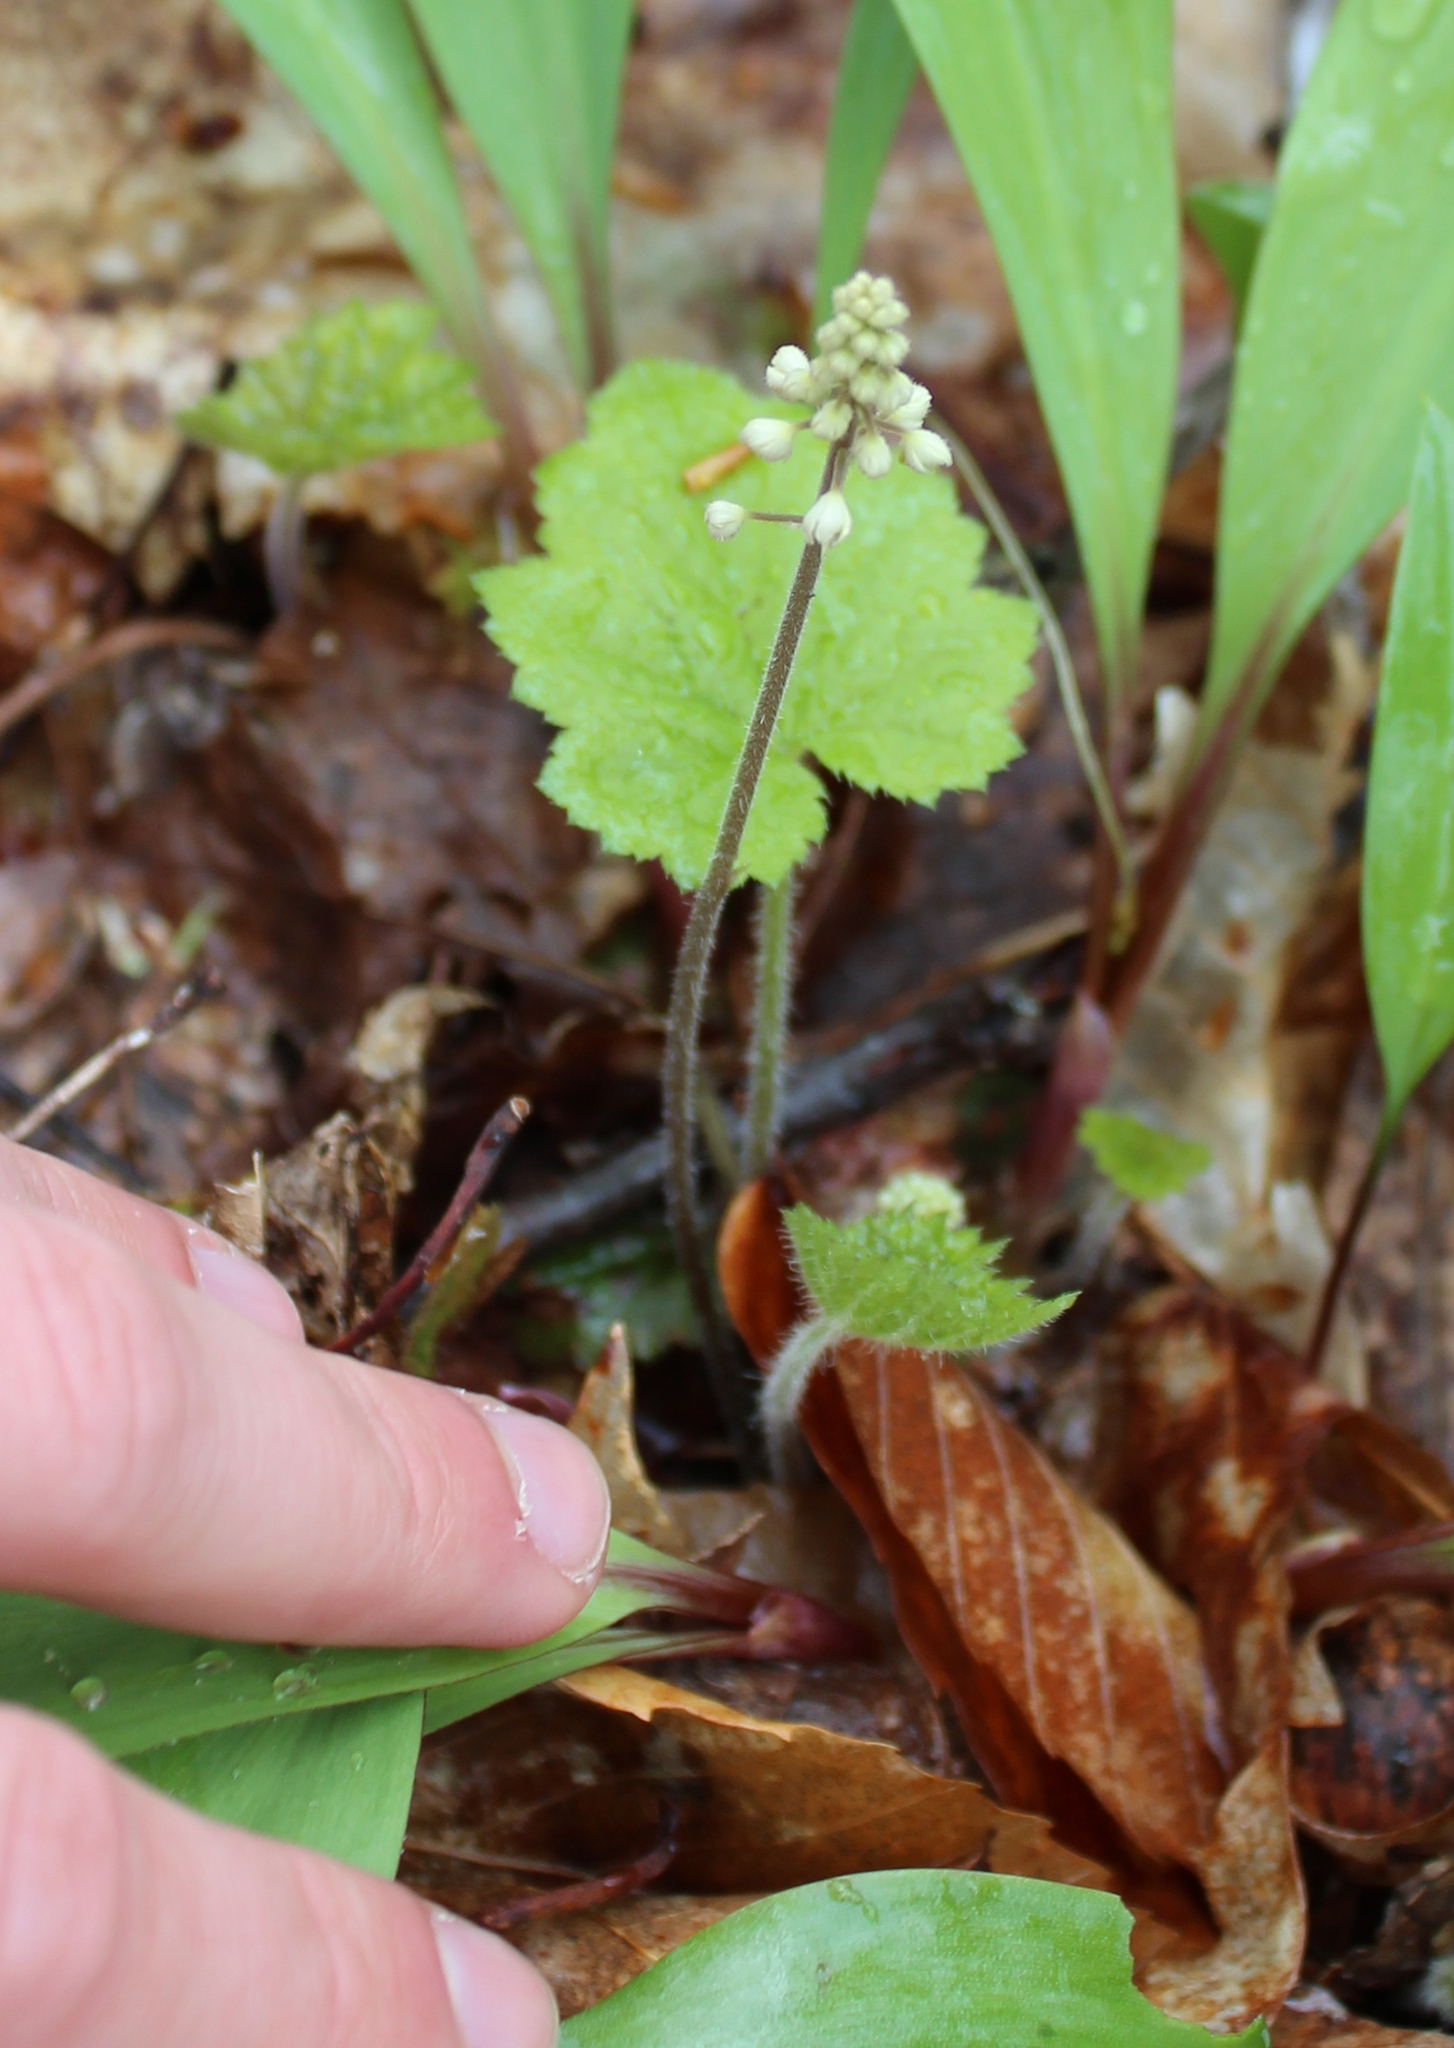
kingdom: Plantae
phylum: Tracheophyta
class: Magnoliopsida
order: Saxifragales
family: Saxifragaceae
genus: Tiarella
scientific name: Tiarella stolonifera
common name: Stoloniferous foamflower
